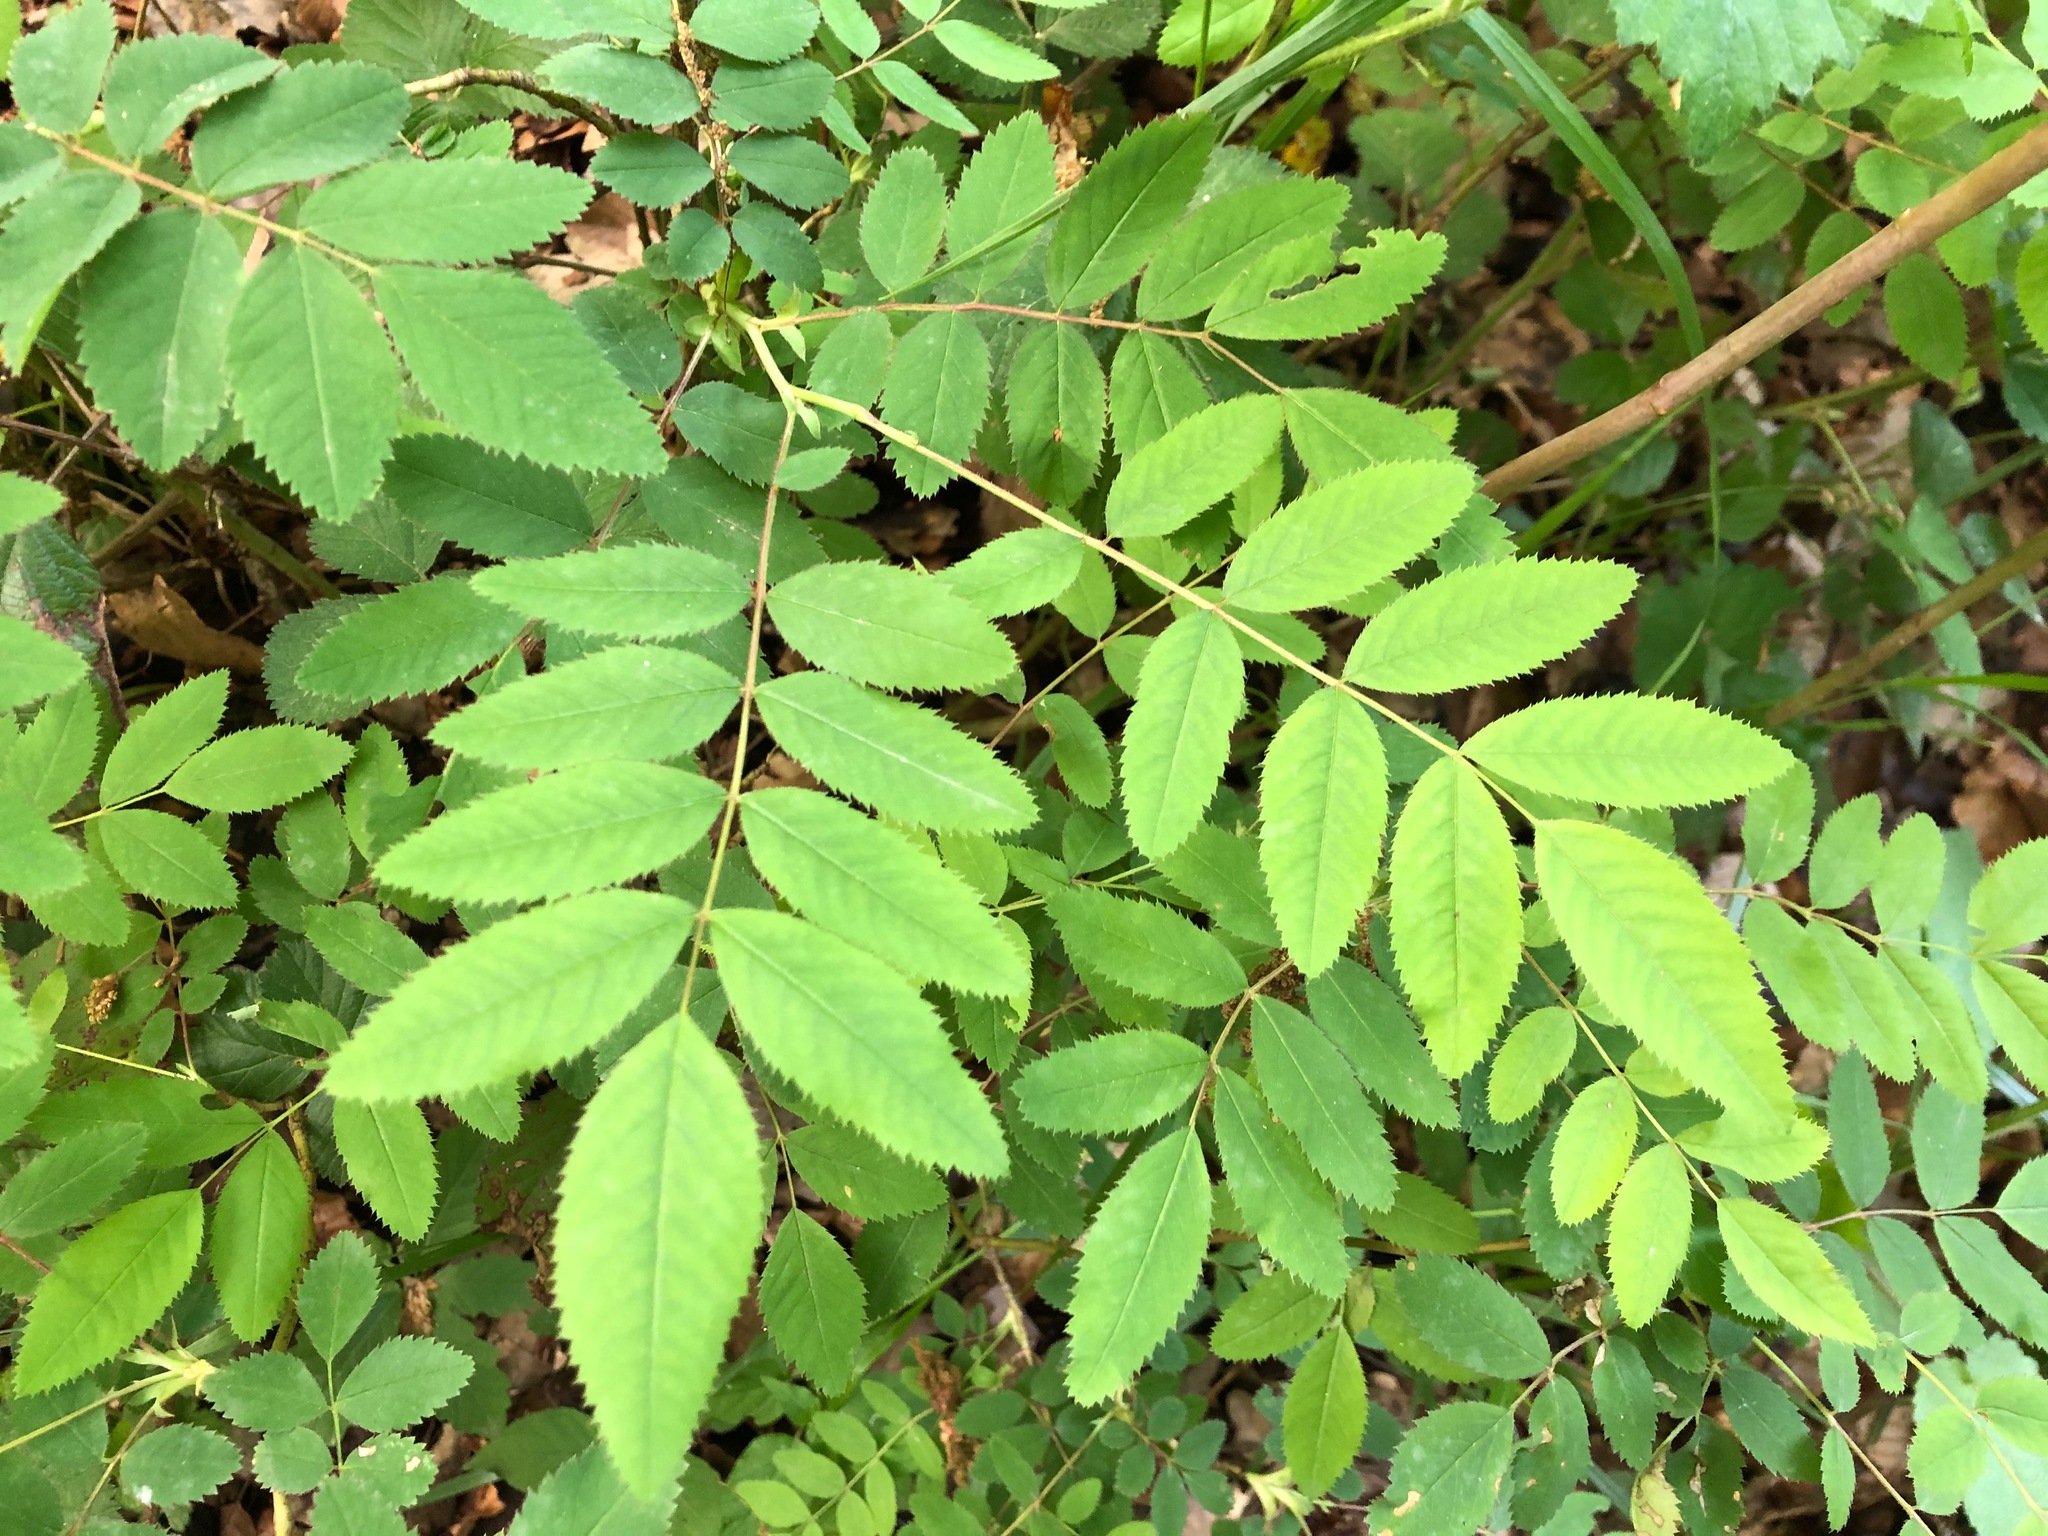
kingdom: Plantae
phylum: Tracheophyta
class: Magnoliopsida
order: Rosales
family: Rosaceae
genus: Rosa
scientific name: Rosa pendulina
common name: Alpine rose
